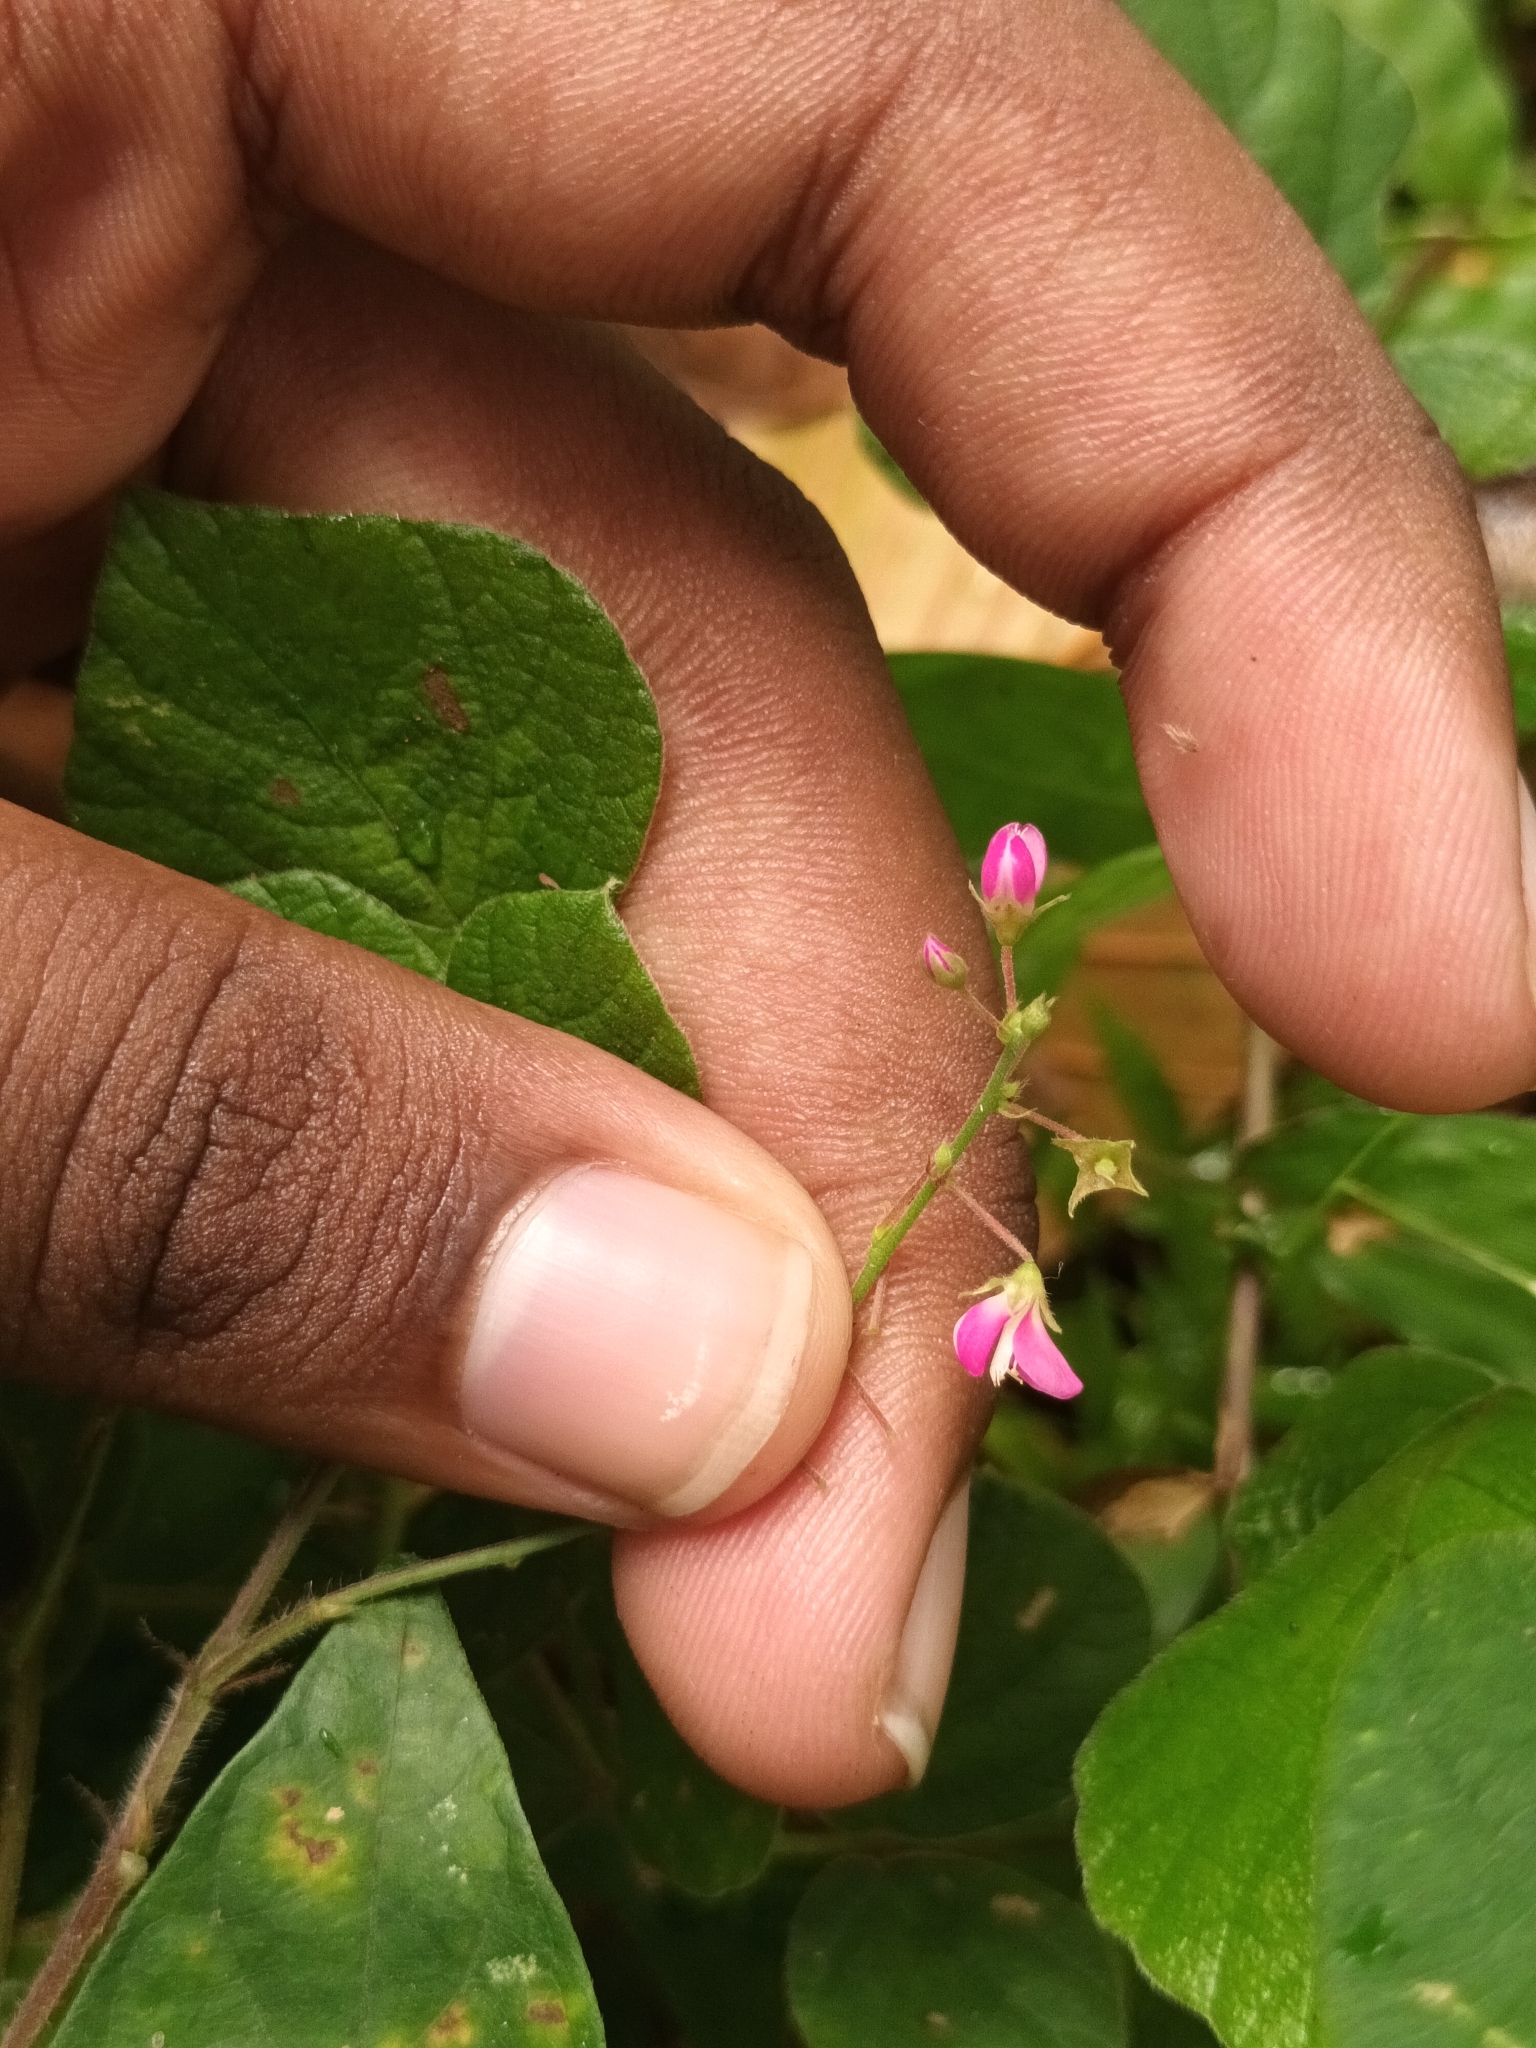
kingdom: Plantae
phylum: Tracheophyta
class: Magnoliopsida
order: Fabales
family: Fabaceae
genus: Pseudarthria
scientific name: Pseudarthria viscida
